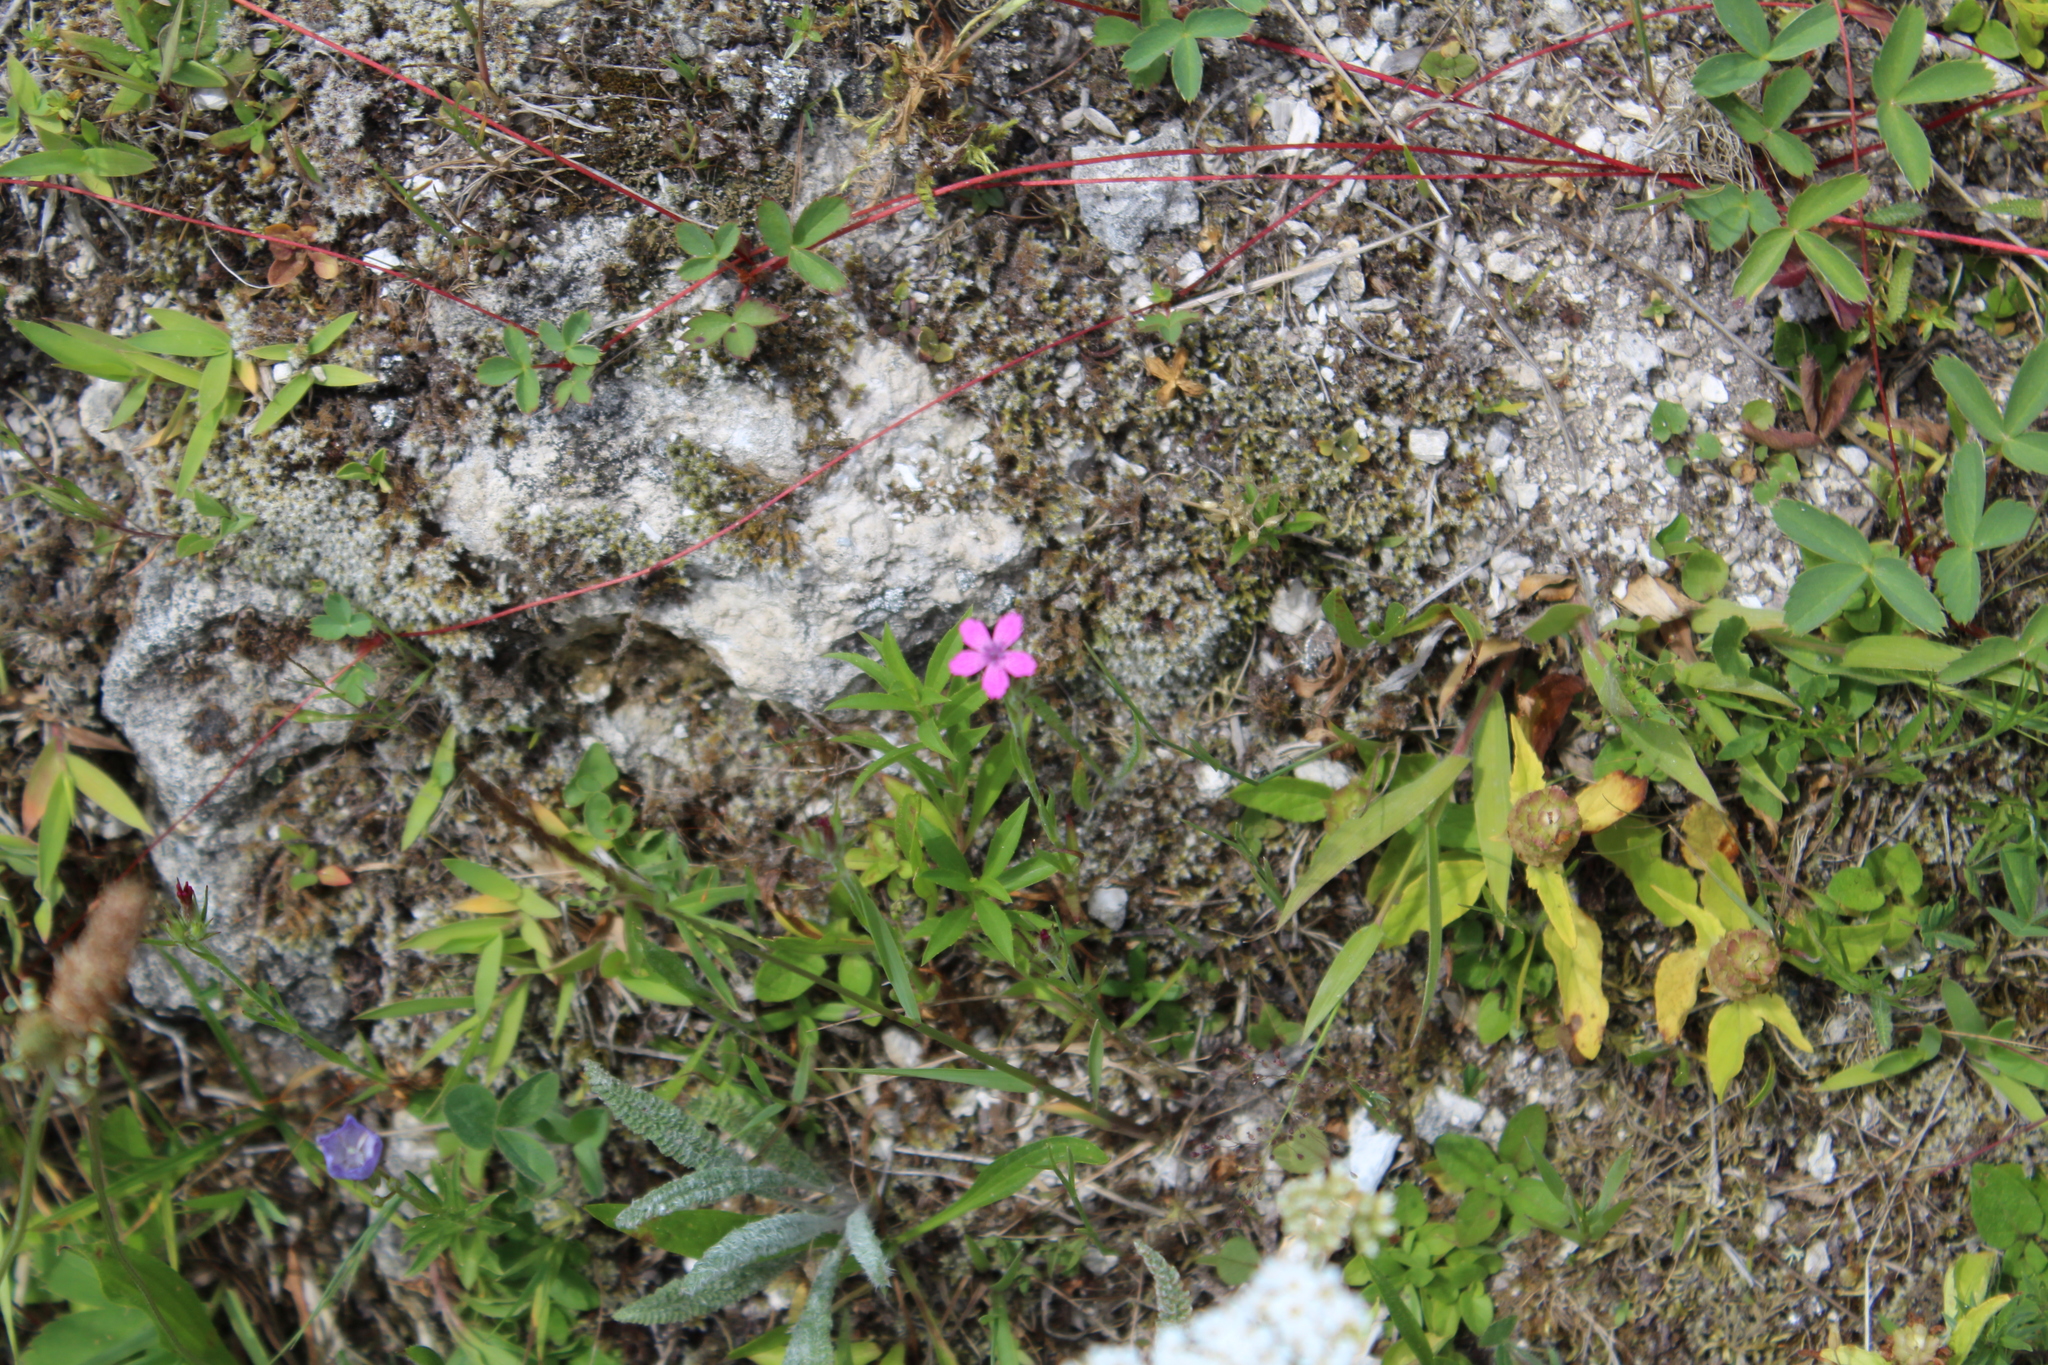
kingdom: Plantae
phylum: Tracheophyta
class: Magnoliopsida
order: Caryophyllales
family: Caryophyllaceae
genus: Dianthus
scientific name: Dianthus armeria
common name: Deptford pink
